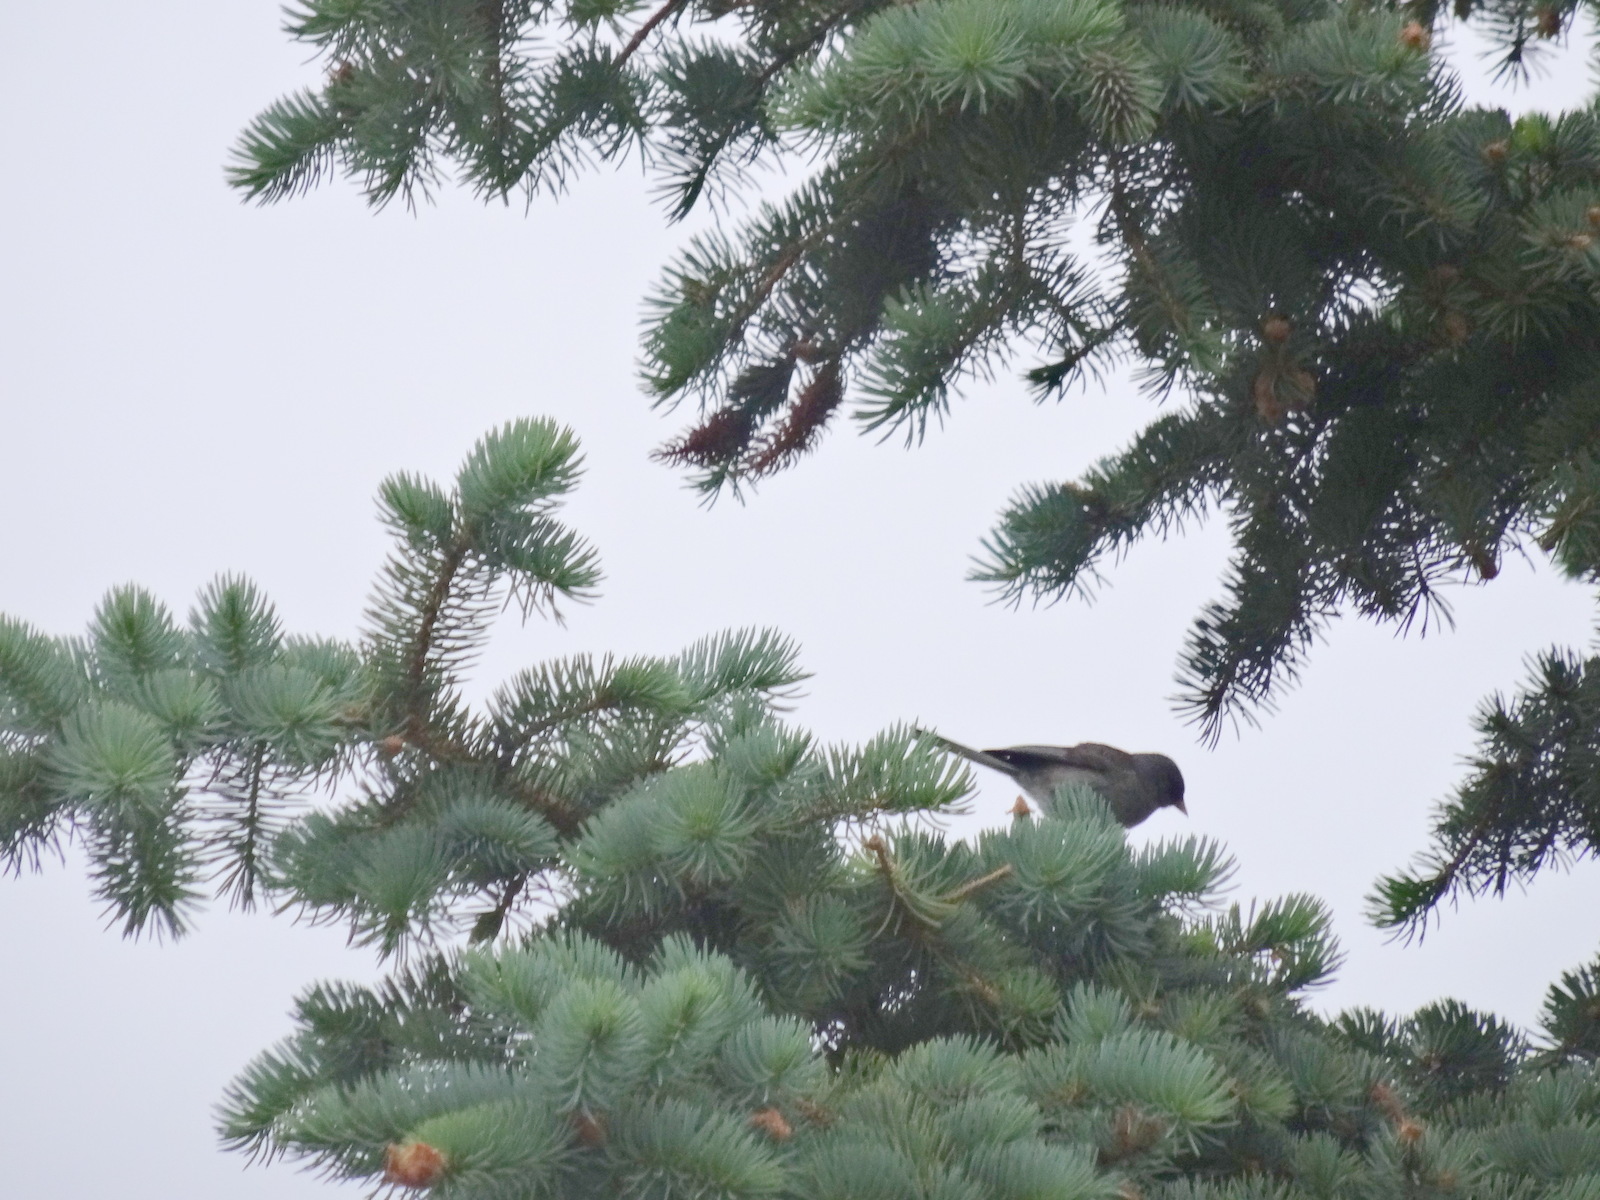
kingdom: Animalia
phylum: Chordata
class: Aves
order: Passeriformes
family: Passerellidae
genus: Junco
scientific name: Junco hyemalis
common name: Dark-eyed junco
